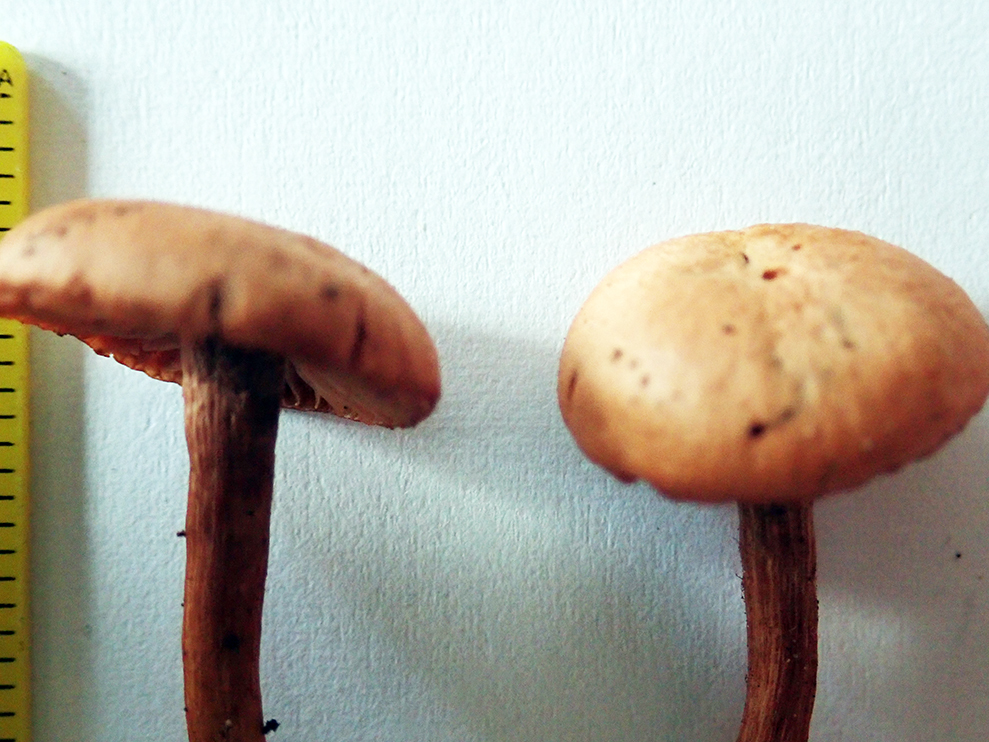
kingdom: Fungi
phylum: Basidiomycota
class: Agaricomycetes
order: Agaricales
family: Hydnangiaceae
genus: Laccaria
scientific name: Laccaria paraphysata
